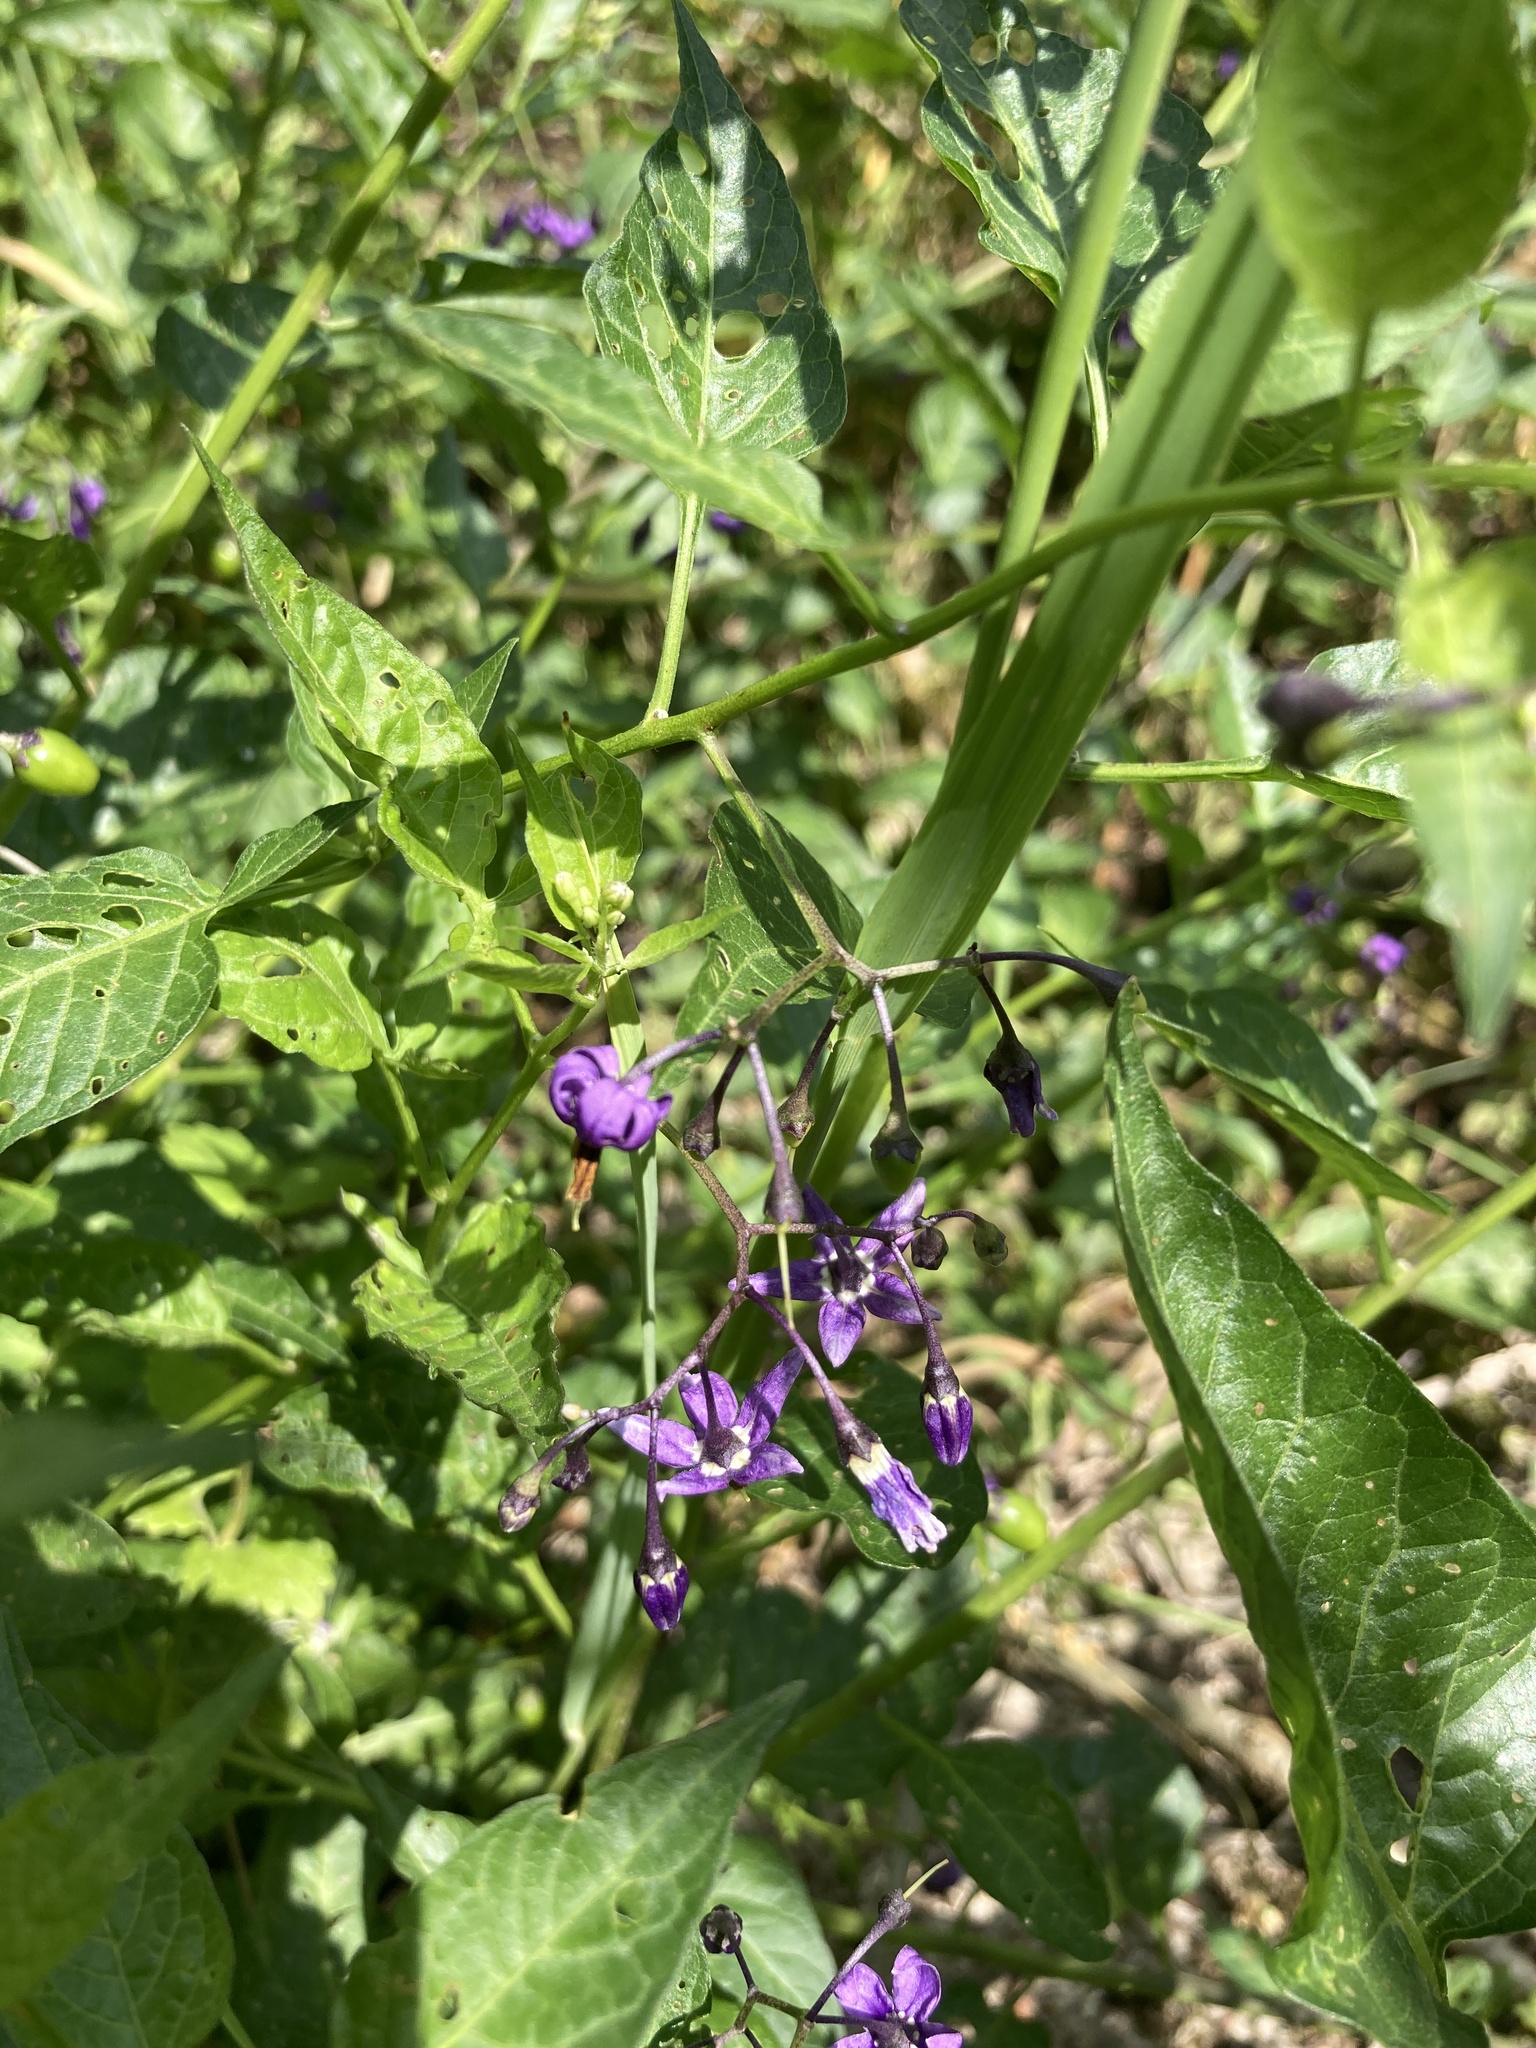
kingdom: Plantae
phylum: Tracheophyta
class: Magnoliopsida
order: Solanales
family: Solanaceae
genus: Solanum
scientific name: Solanum dulcamara
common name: Climbing nightshade
